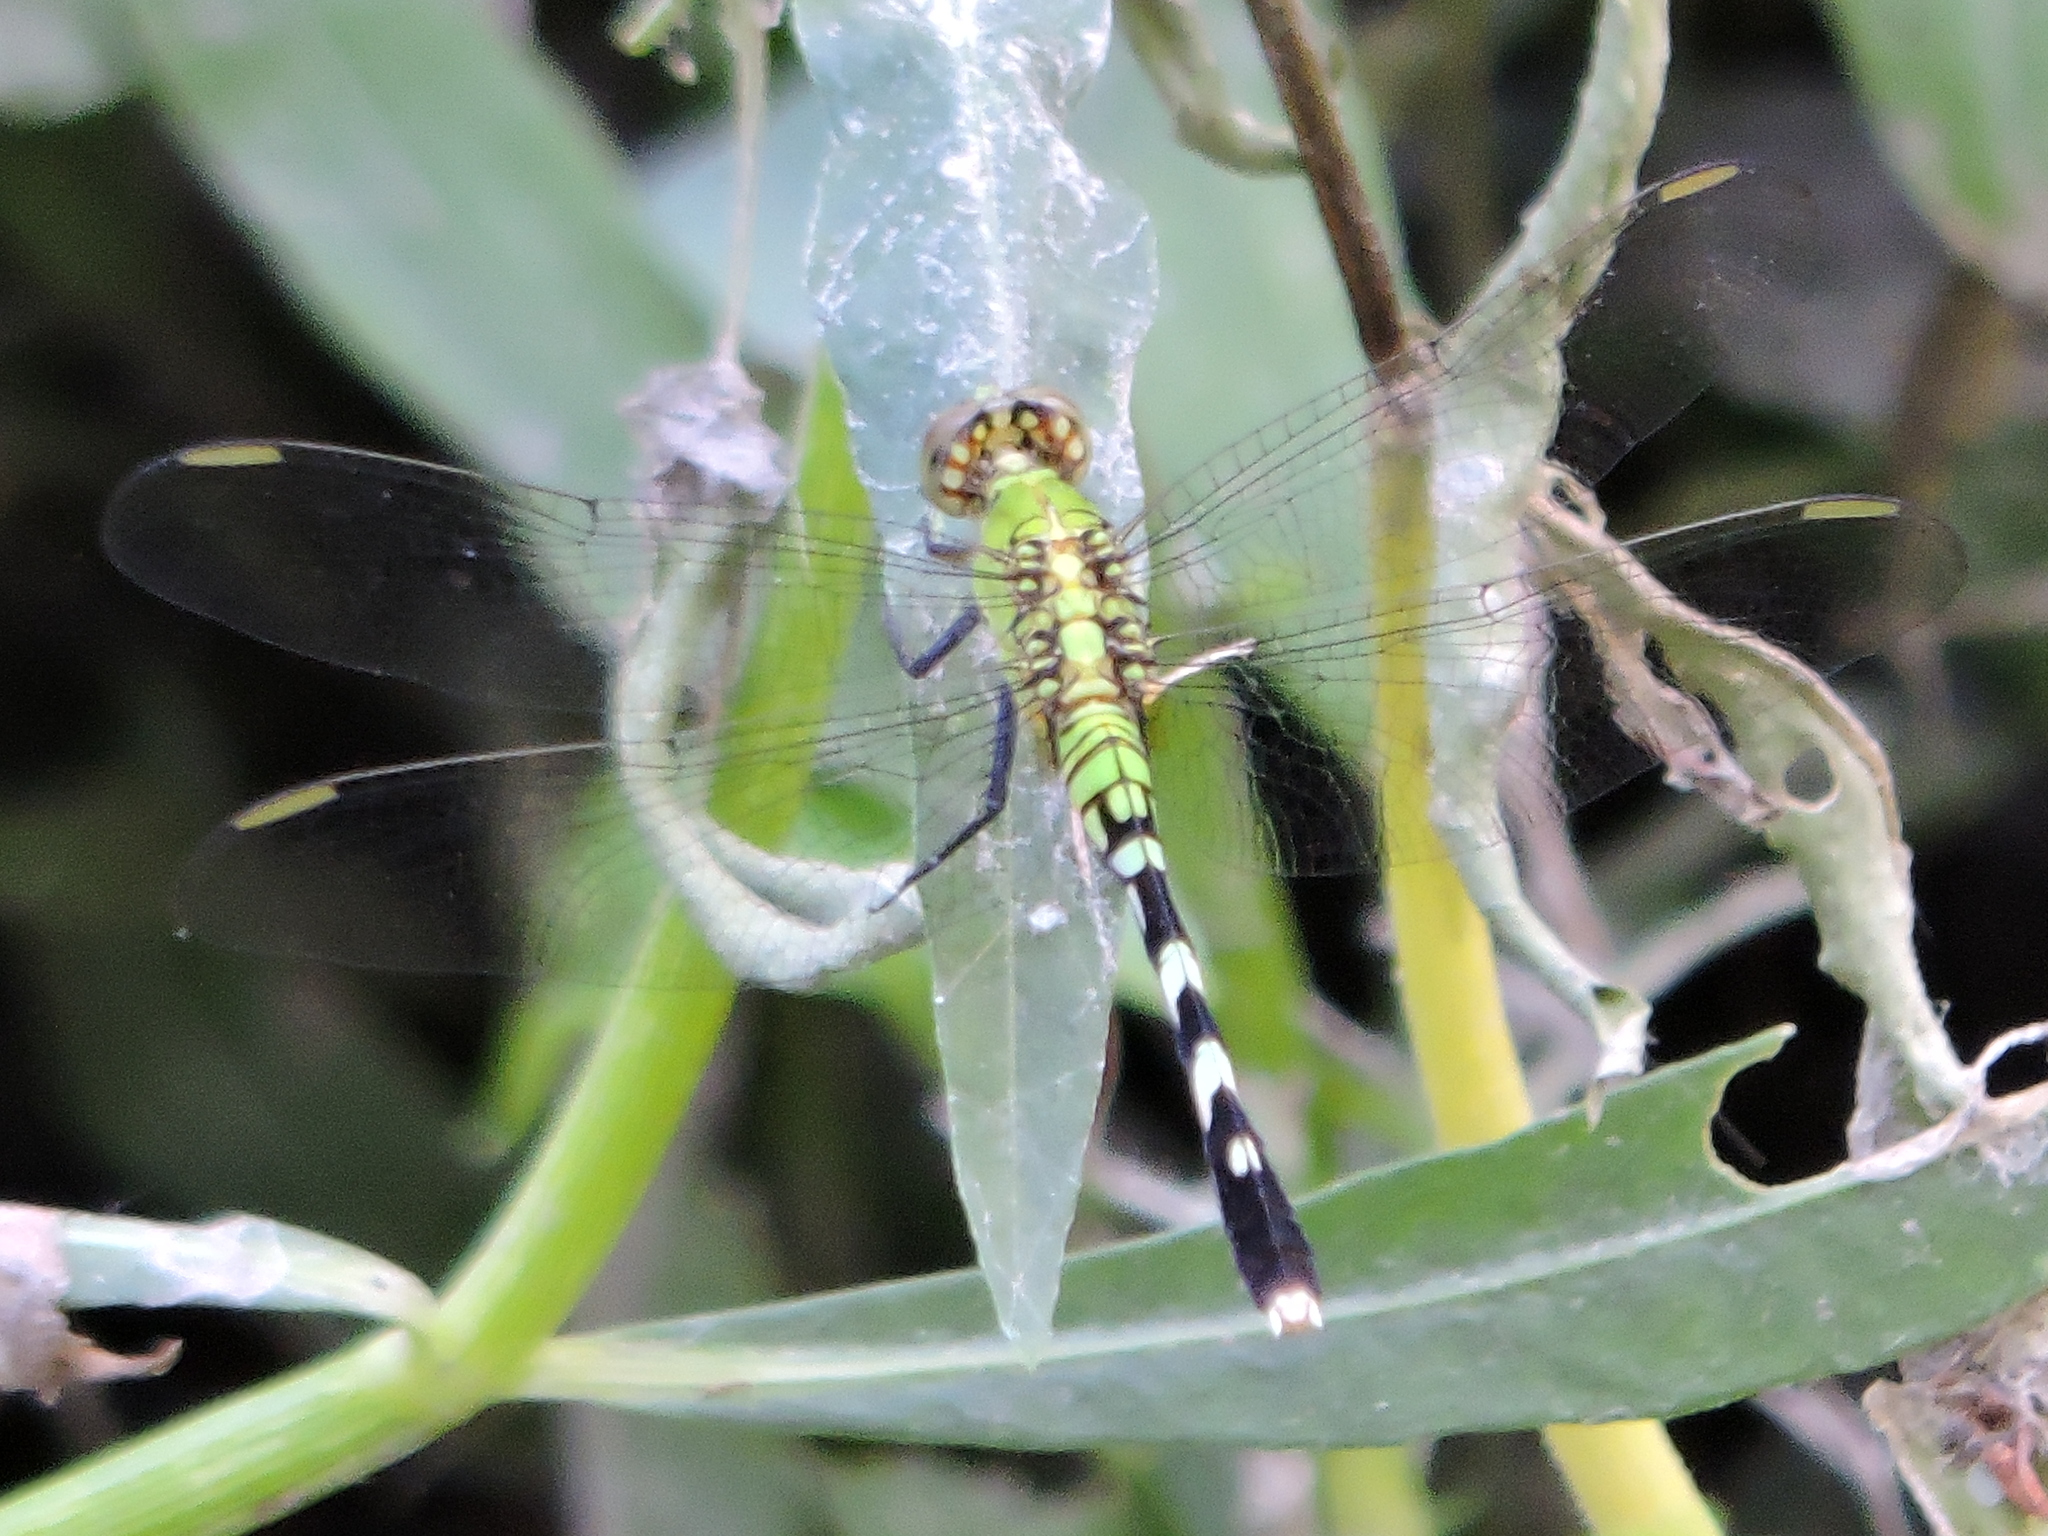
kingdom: Animalia
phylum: Arthropoda
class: Insecta
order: Odonata
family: Libellulidae
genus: Erythemis
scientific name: Erythemis simplicicollis
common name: Eastern pondhawk
